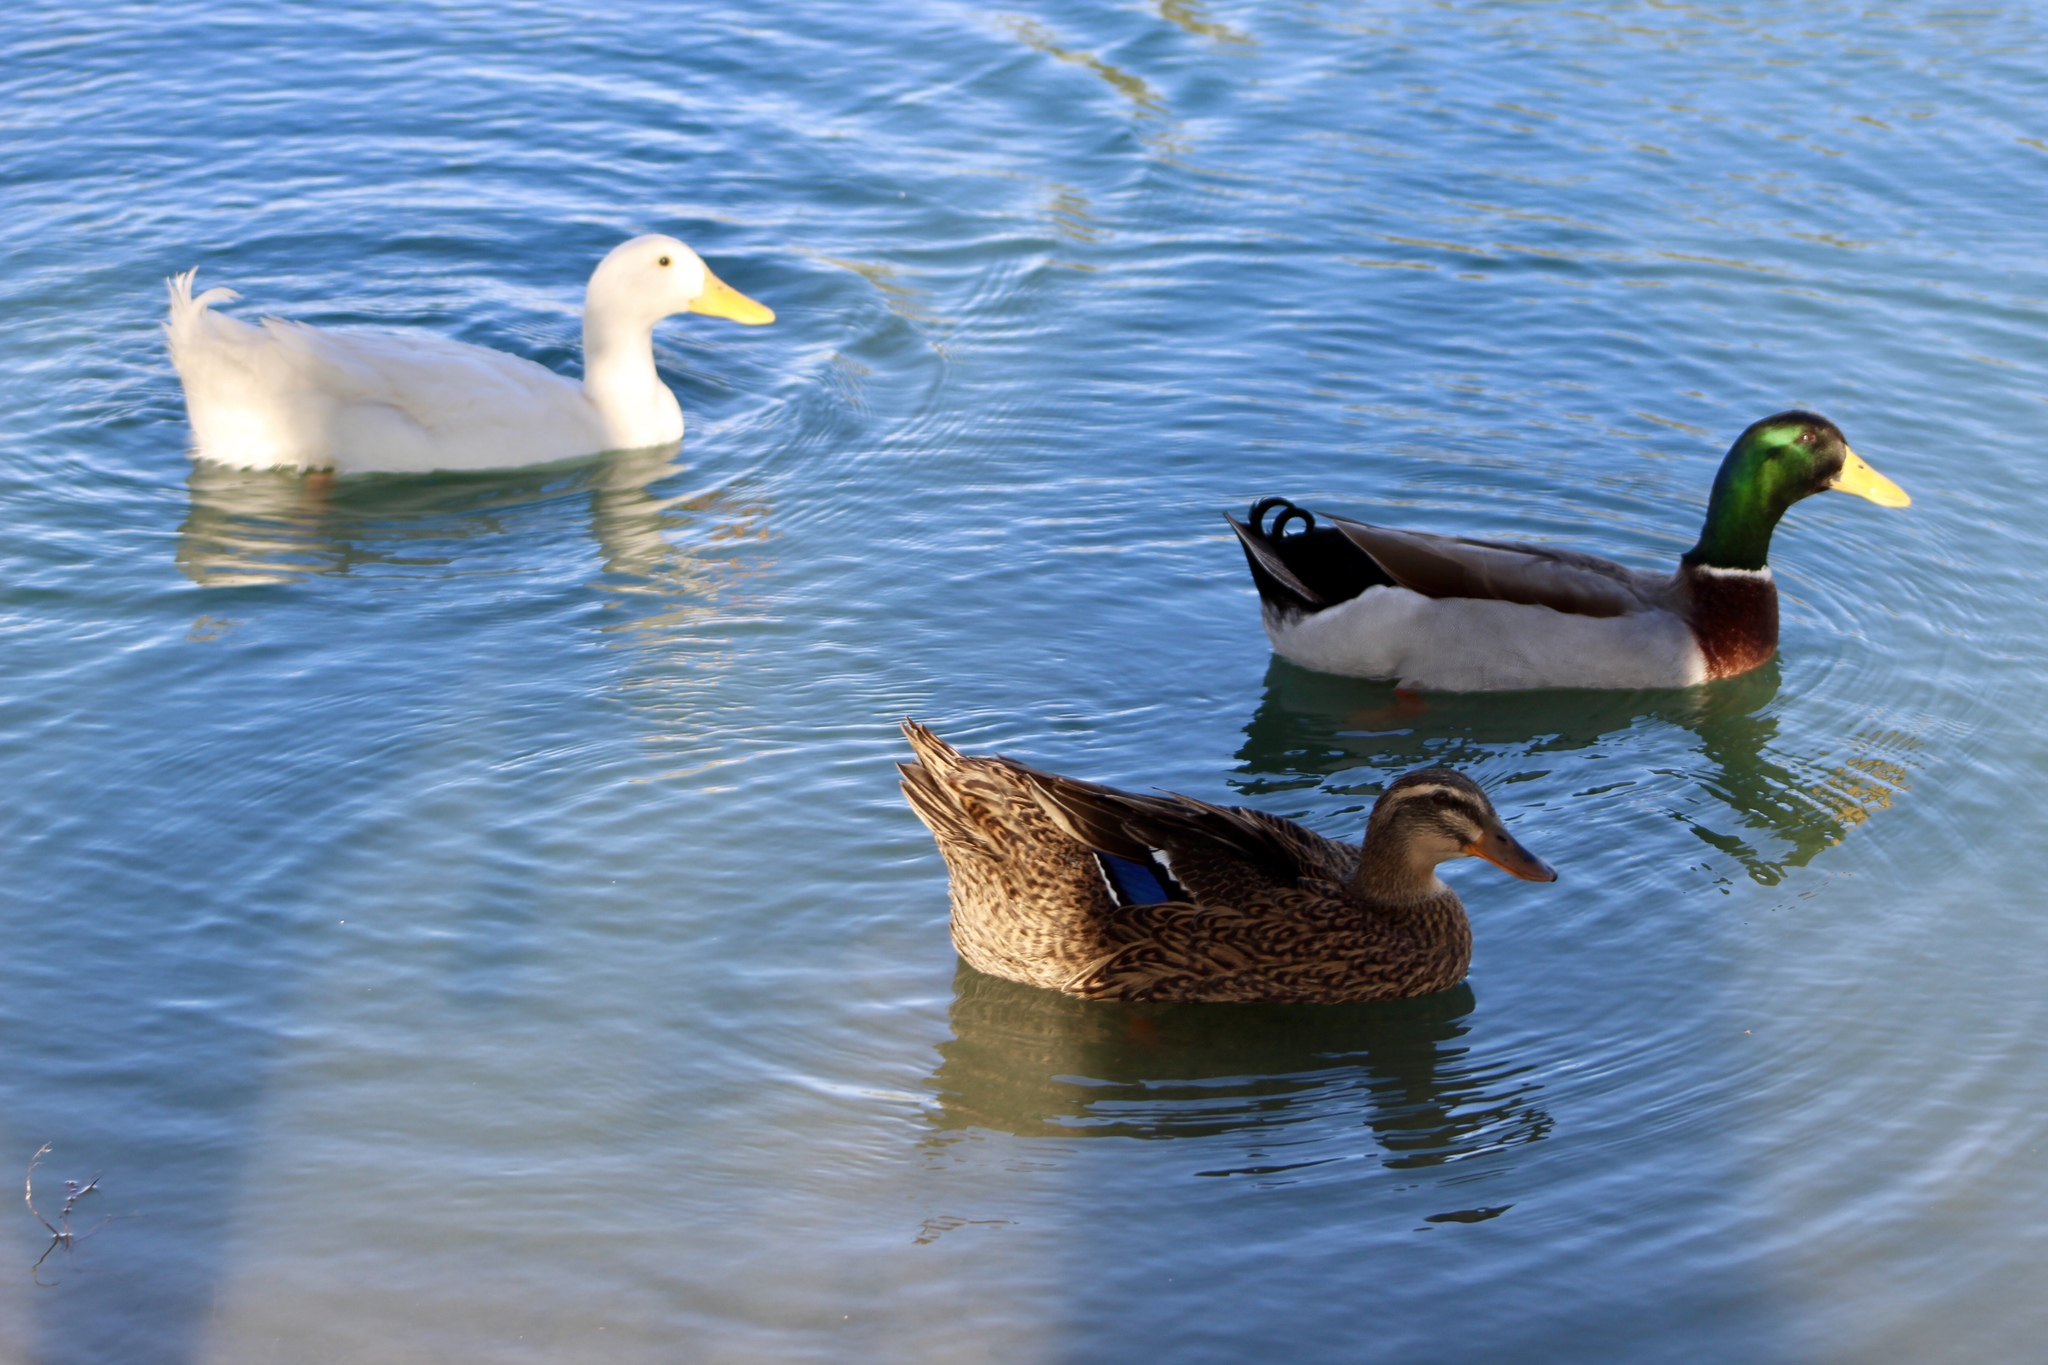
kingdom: Animalia
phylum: Chordata
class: Aves
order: Anseriformes
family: Anatidae
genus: Anas
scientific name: Anas platyrhynchos
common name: Mallard
